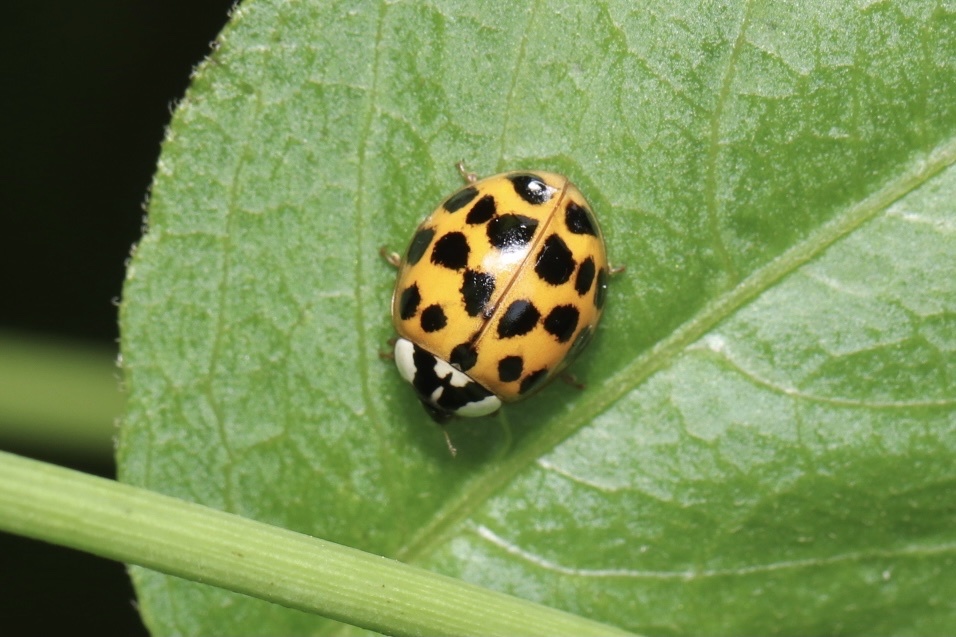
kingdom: Animalia
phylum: Arthropoda
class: Insecta
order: Coleoptera
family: Coccinellidae
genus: Harmonia
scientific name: Harmonia axyridis
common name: Harlequin ladybird
